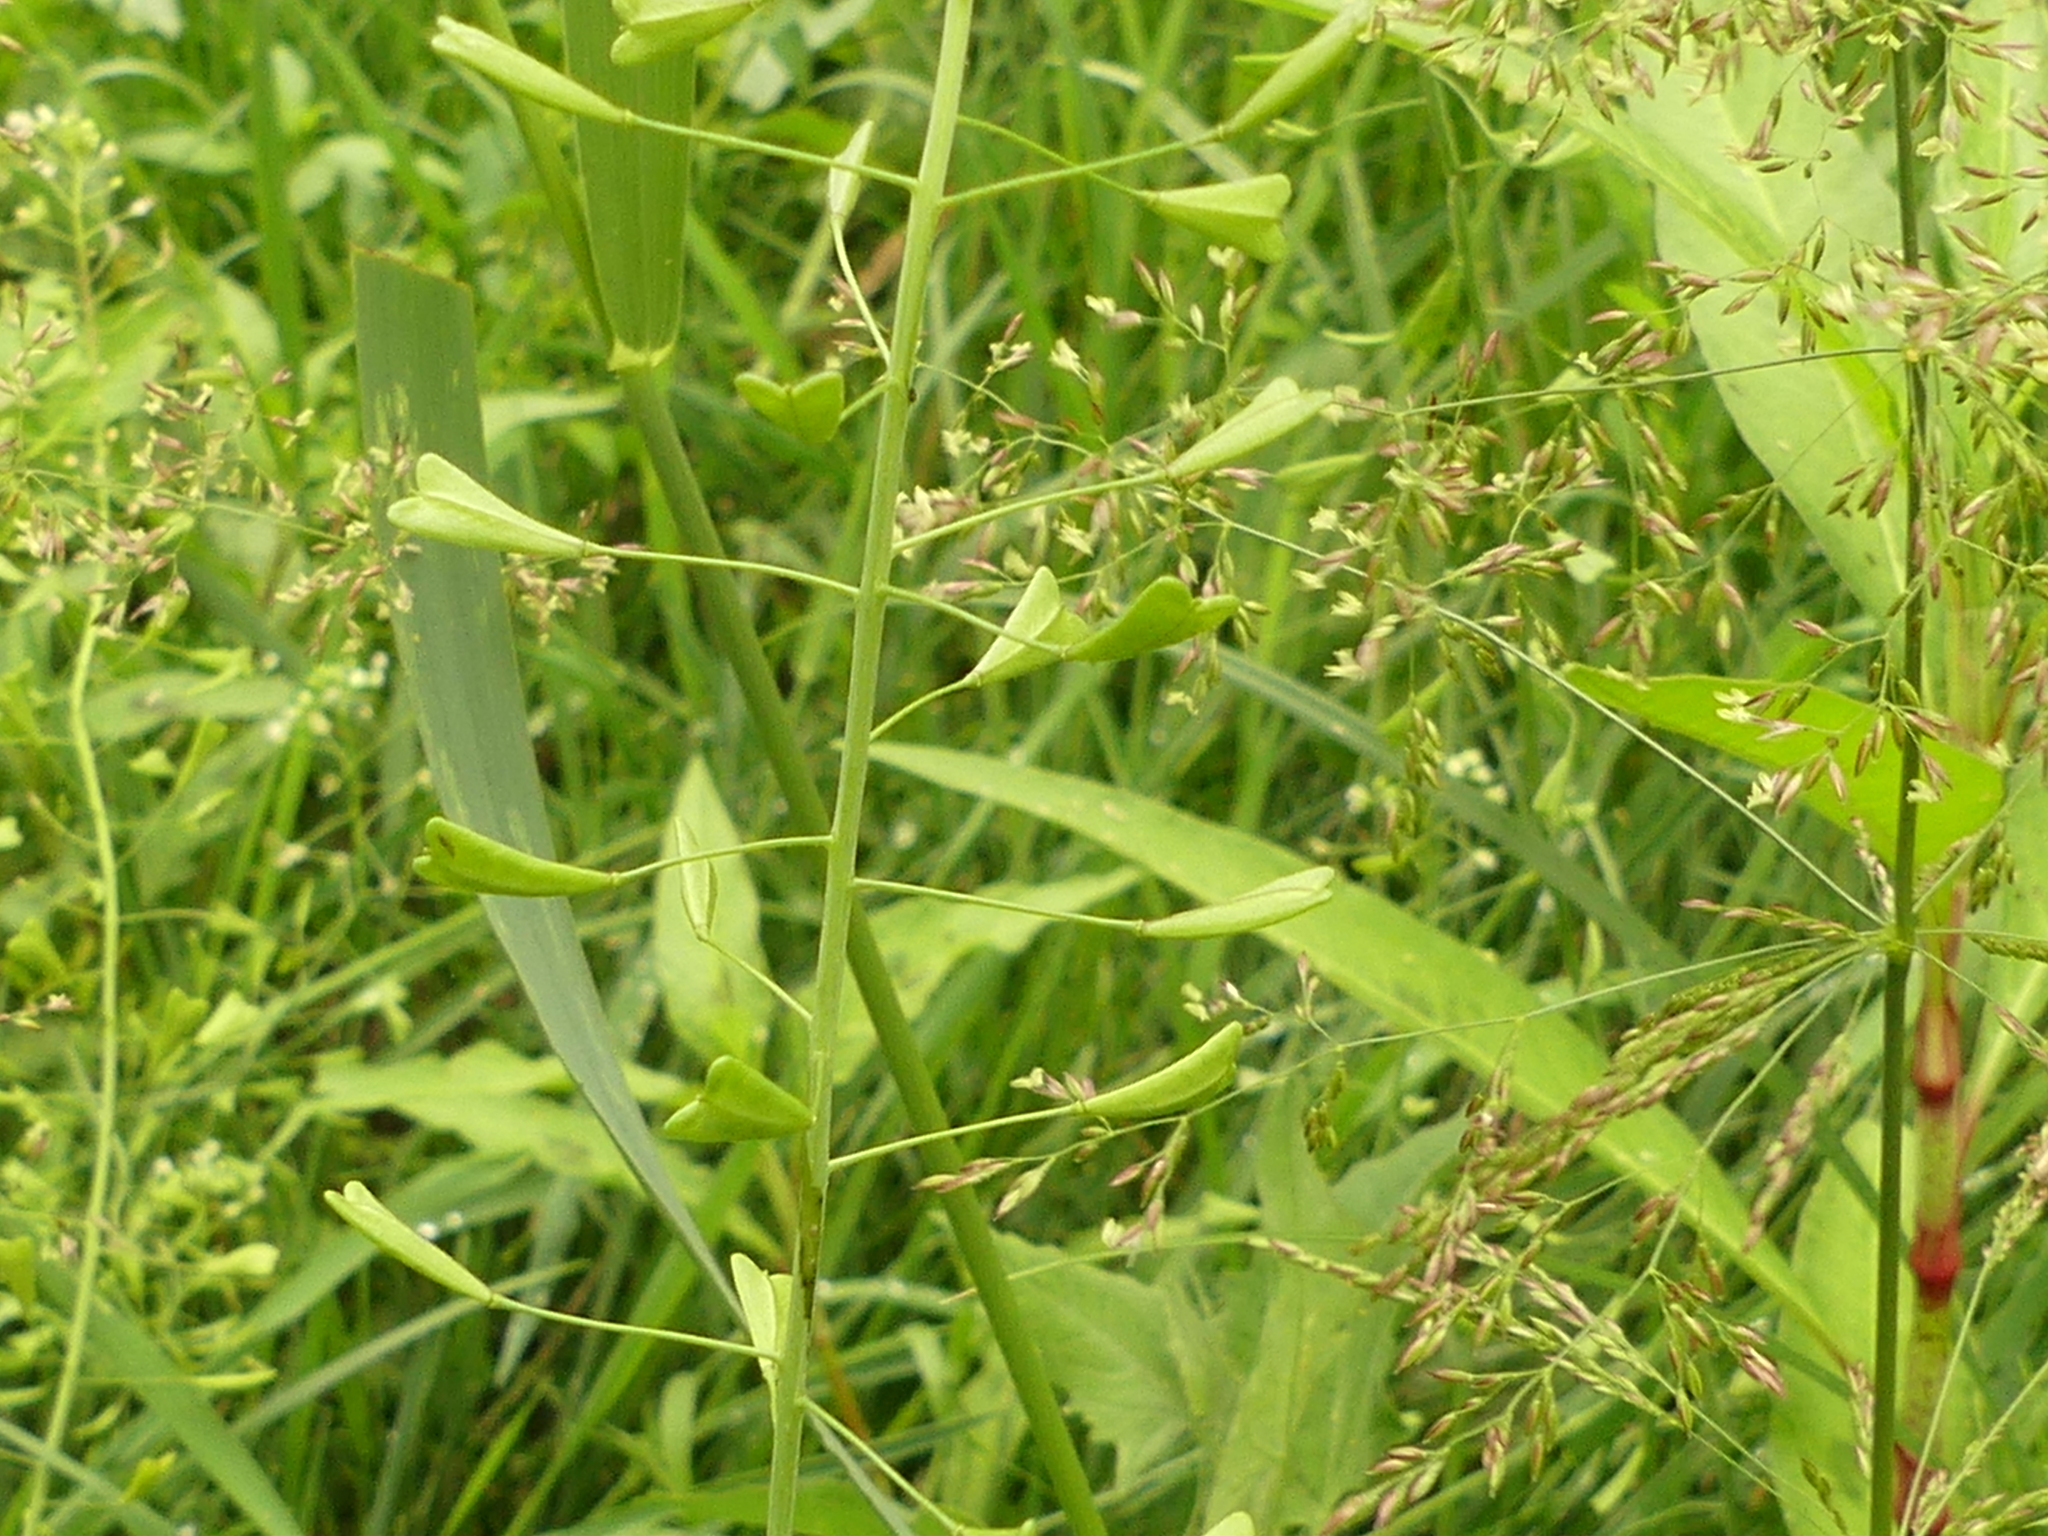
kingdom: Plantae
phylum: Tracheophyta
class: Magnoliopsida
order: Brassicales
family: Brassicaceae
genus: Capsella
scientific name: Capsella bursa-pastoris
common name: Shepherd's purse
